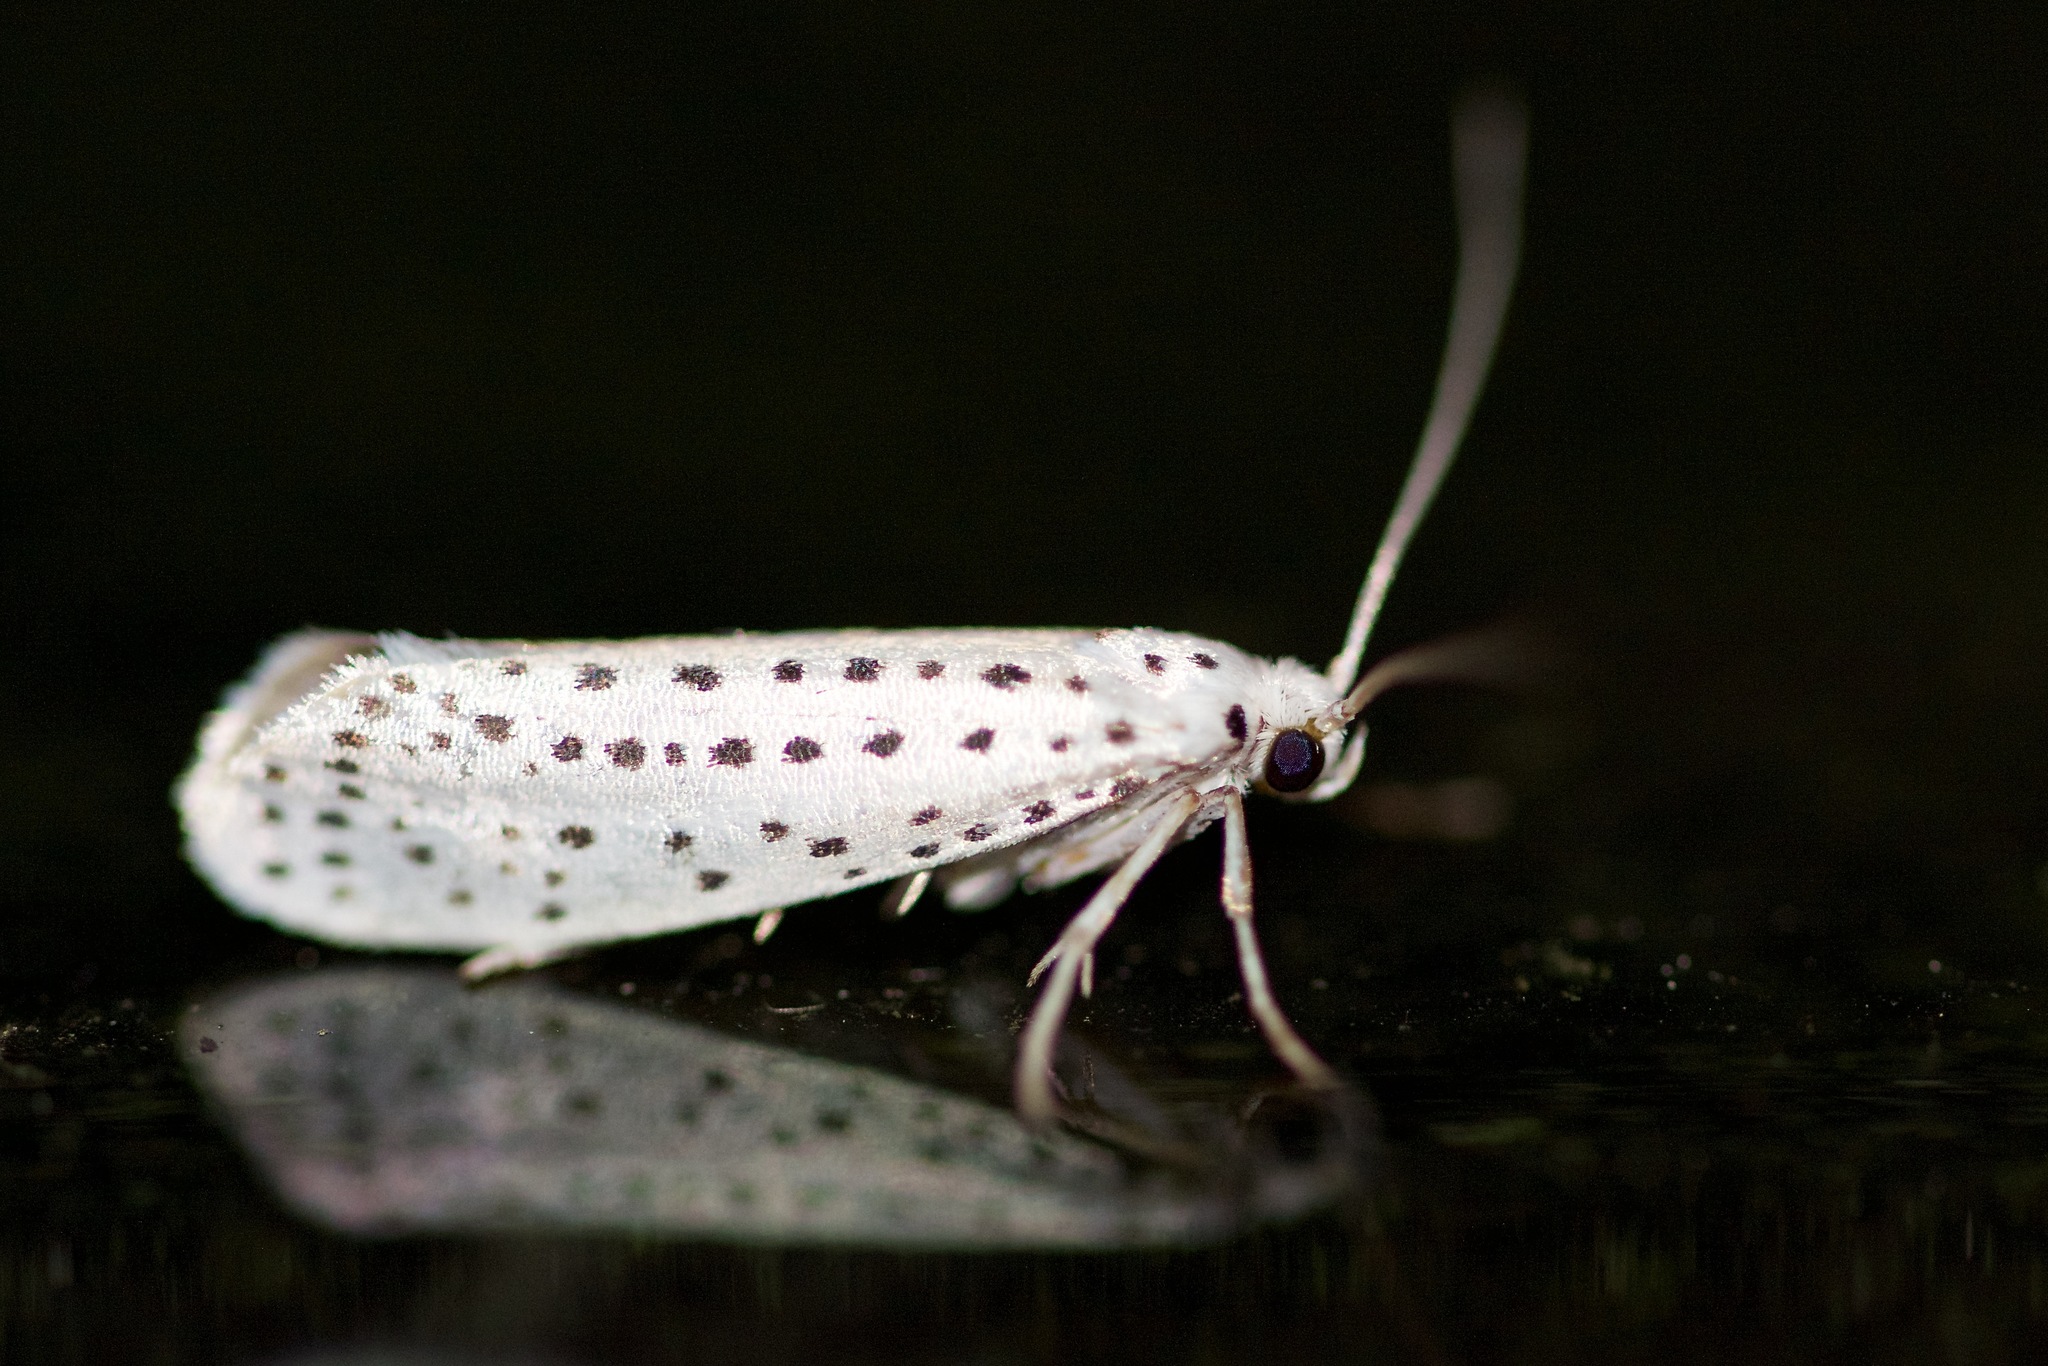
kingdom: Animalia
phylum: Arthropoda
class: Insecta
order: Lepidoptera
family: Yponomeutidae
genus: Yponomeuta
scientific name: Yponomeuta multipunctella
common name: American ermine moth
